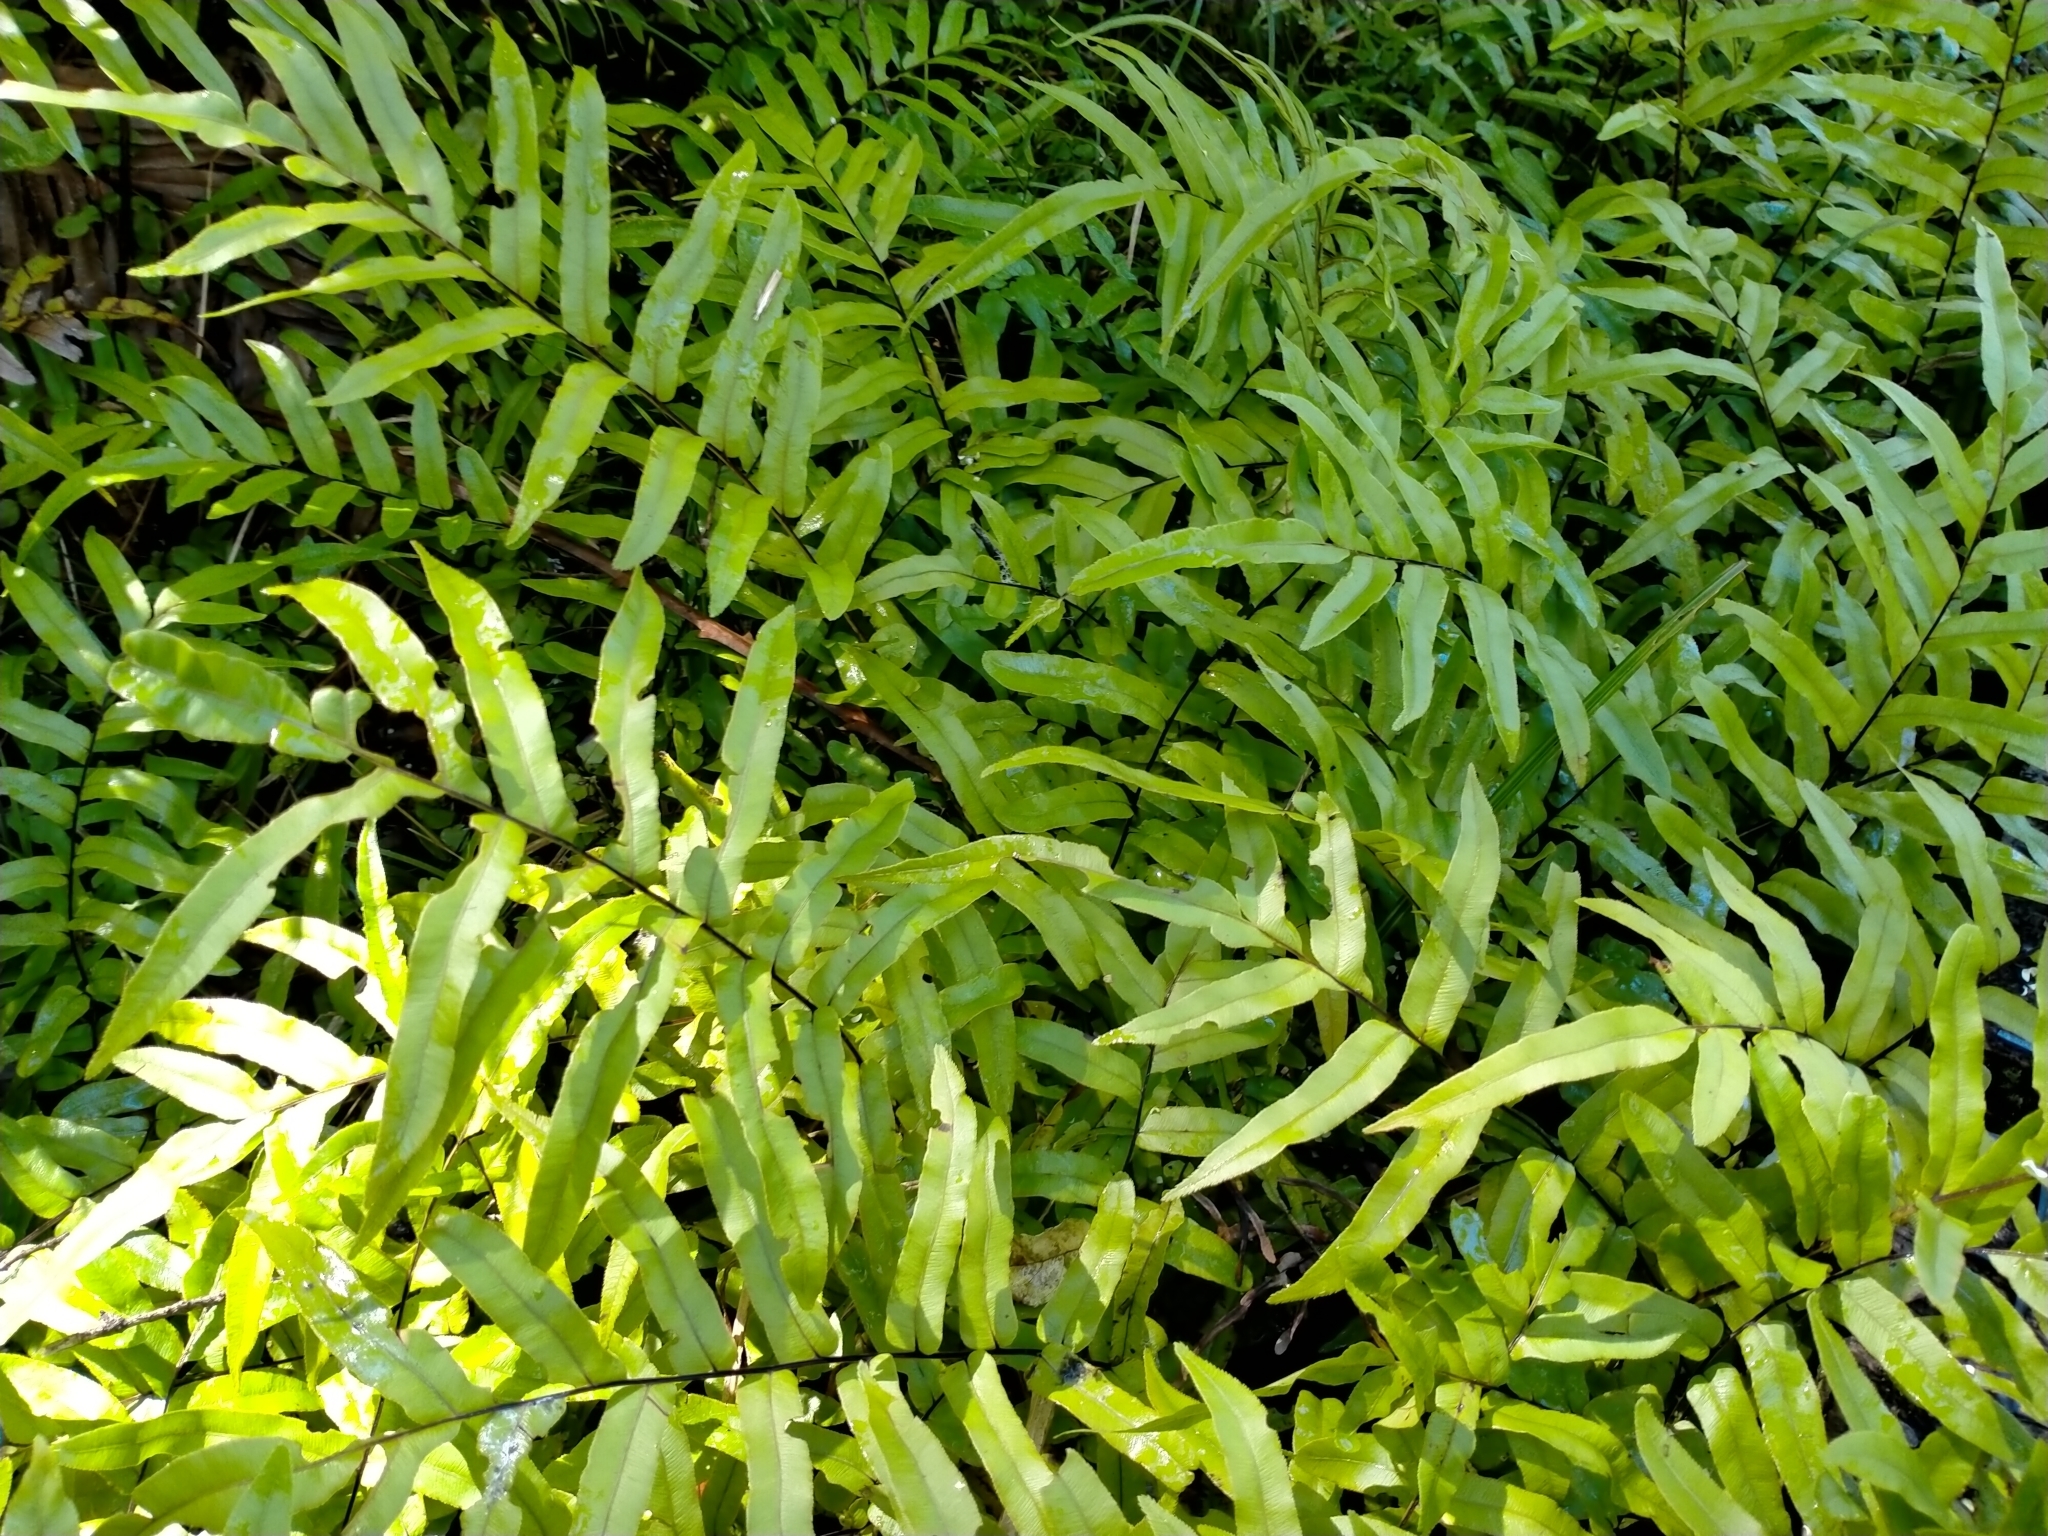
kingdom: Plantae
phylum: Tracheophyta
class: Polypodiopsida
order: Polypodiales
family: Blechnaceae
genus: Parablechnum
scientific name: Parablechnum minus
